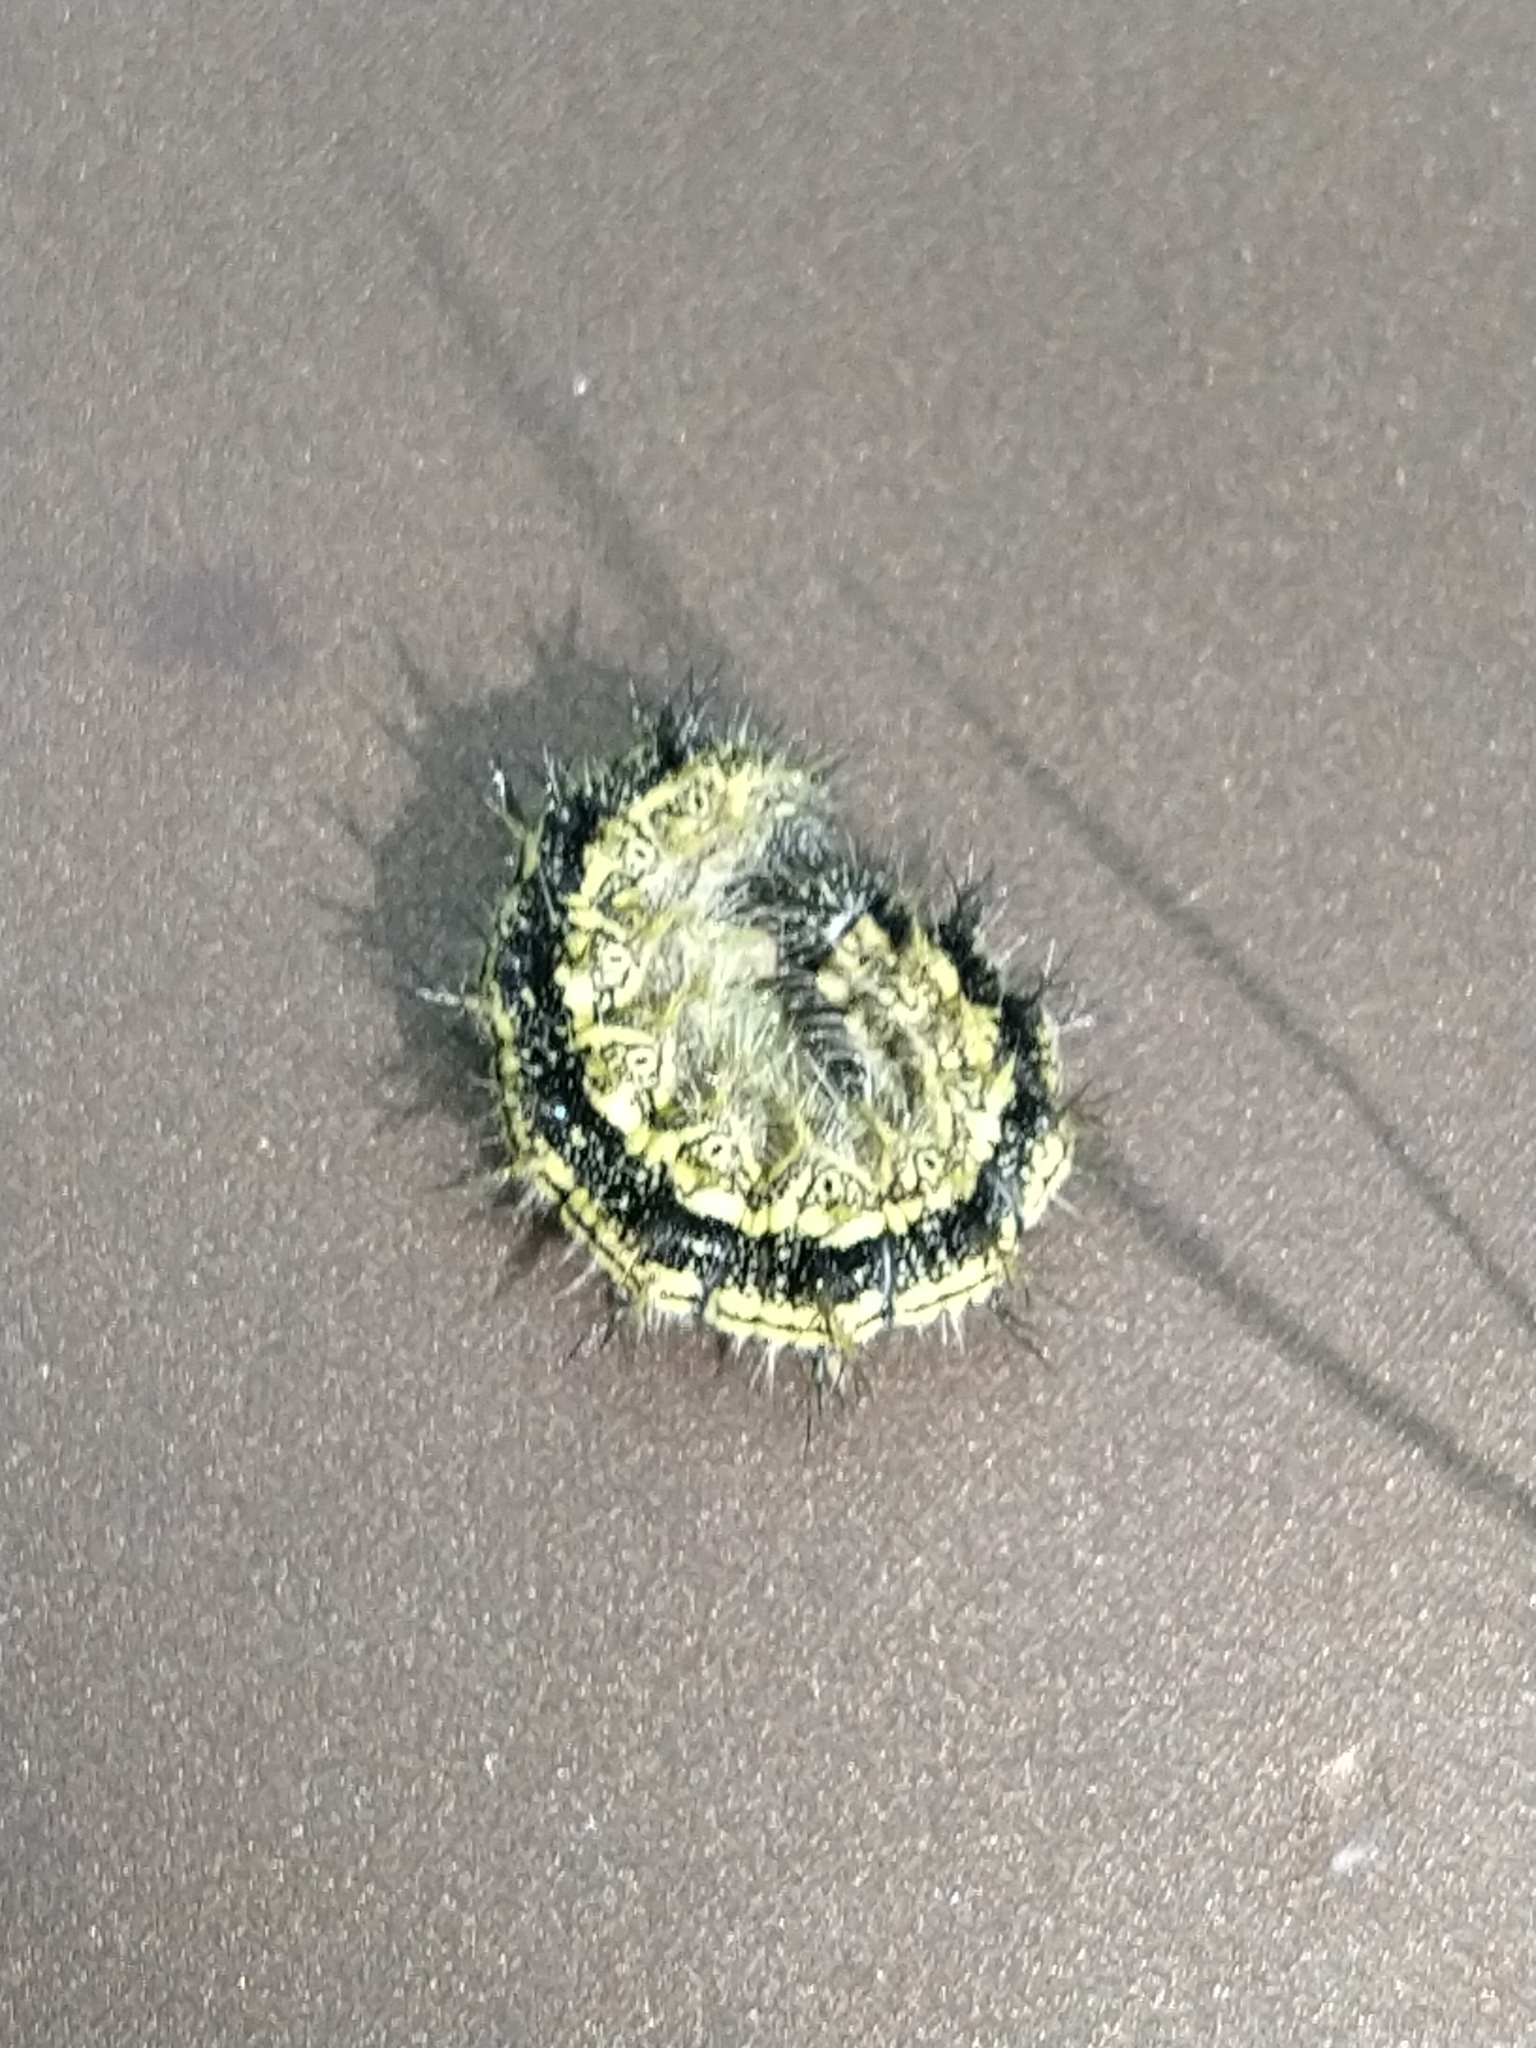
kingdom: Animalia
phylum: Arthropoda
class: Insecta
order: Lepidoptera
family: Nymphalidae
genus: Aglais
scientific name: Aglais urticae
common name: Small tortoiseshell
